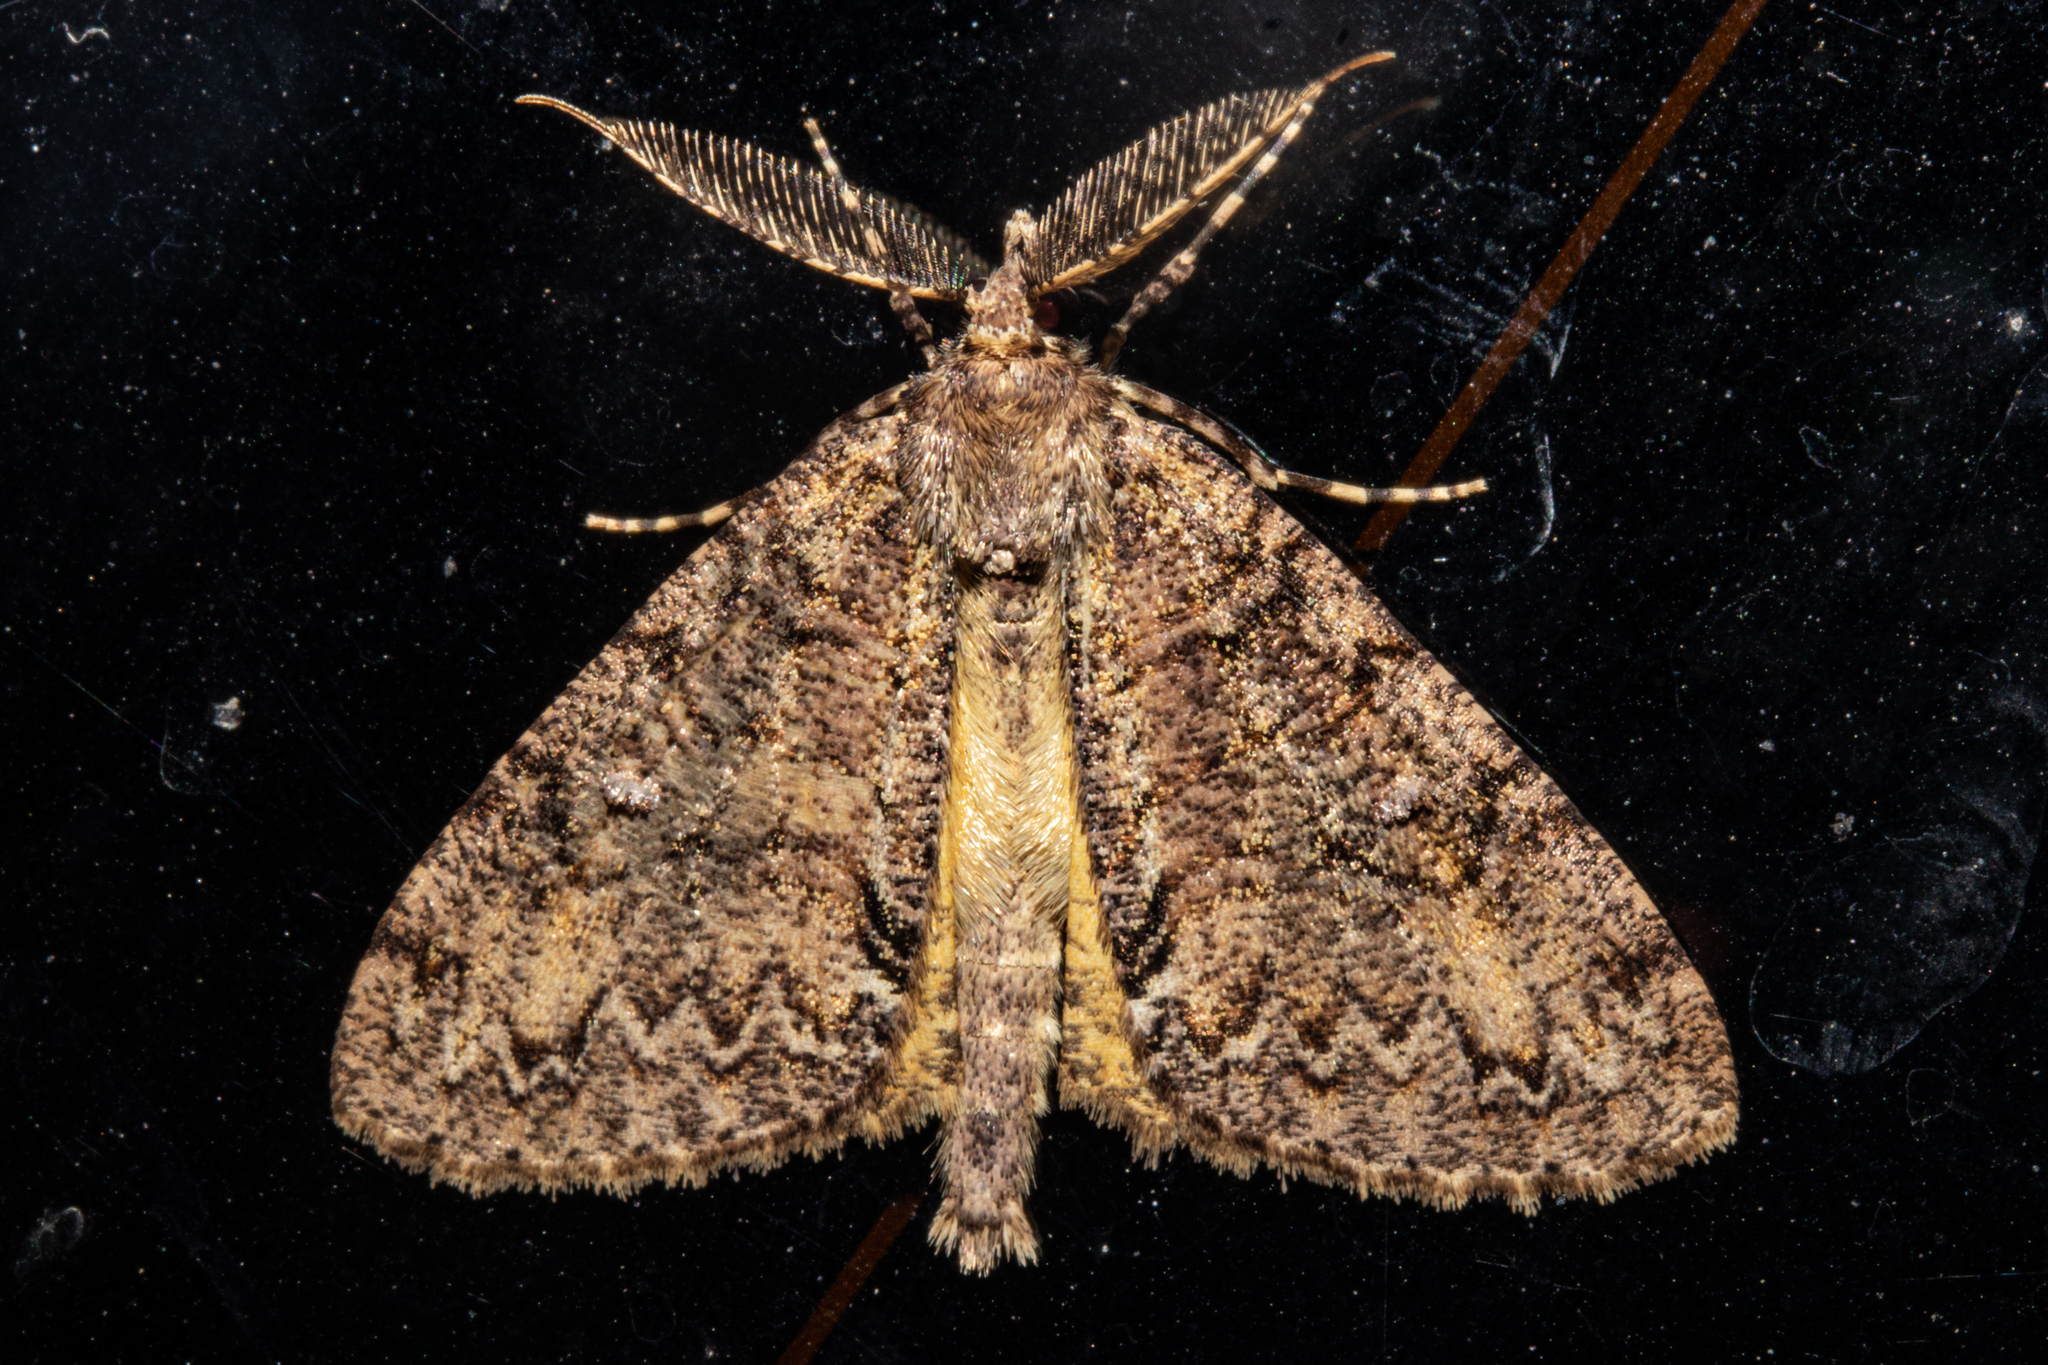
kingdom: Animalia
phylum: Arthropoda
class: Insecta
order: Lepidoptera
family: Geometridae
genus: Pseudocoremia
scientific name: Pseudocoremia suavis
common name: Common forest looper
